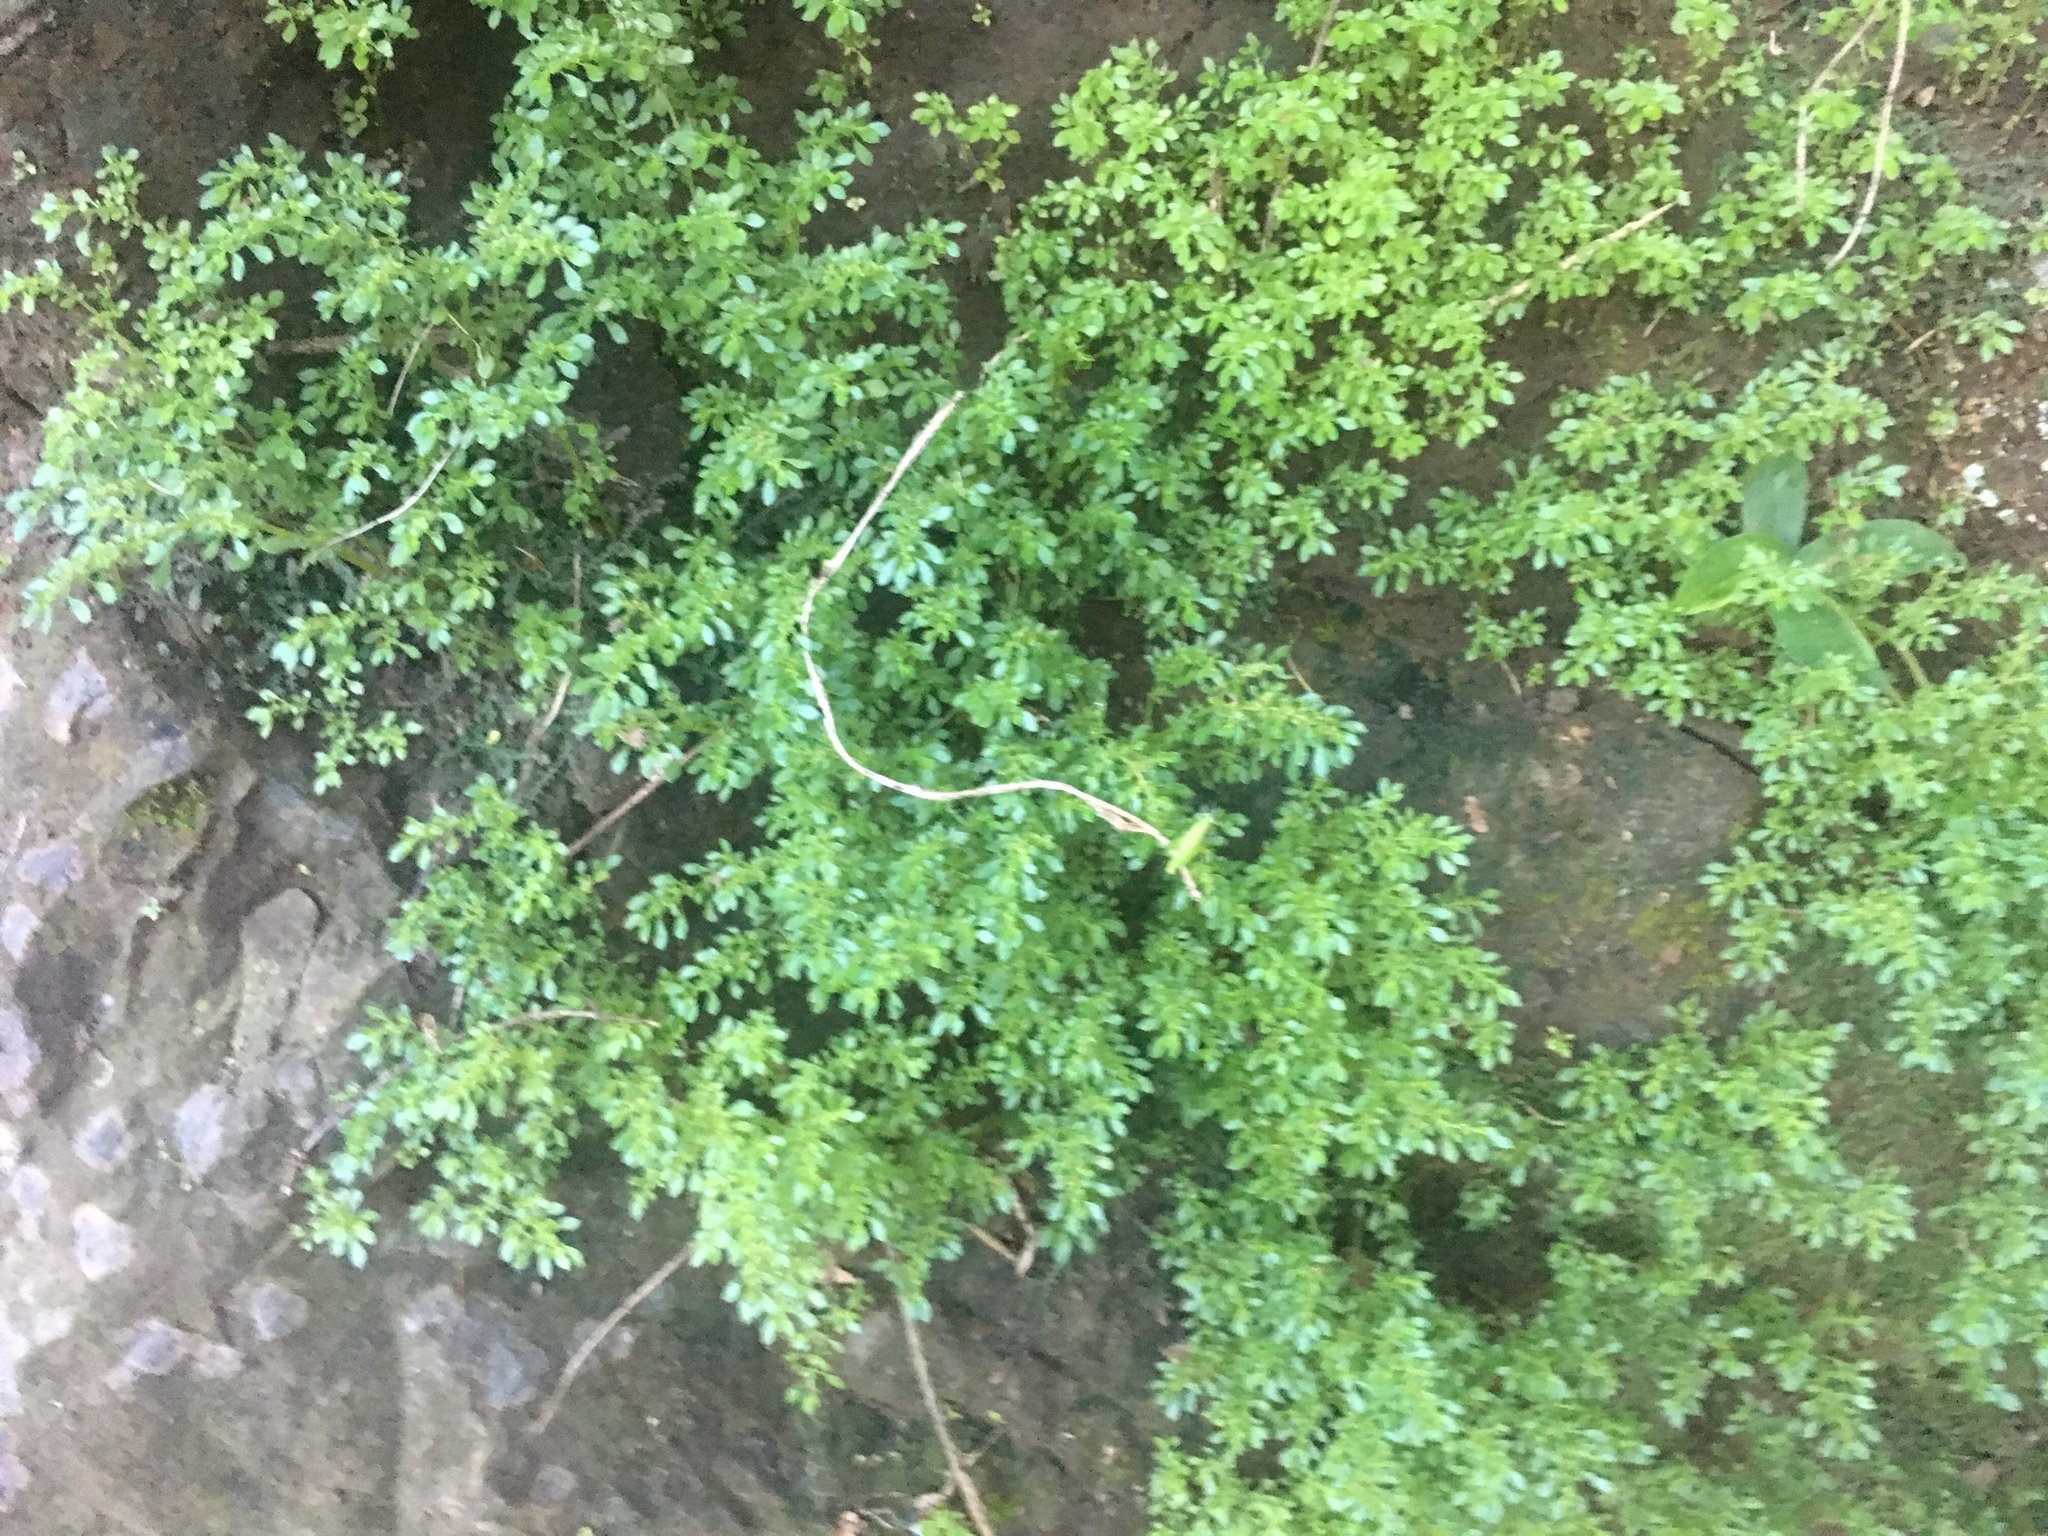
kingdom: Plantae
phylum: Tracheophyta
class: Magnoliopsida
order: Rosales
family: Urticaceae
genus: Pilea
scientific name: Pilea microphylla
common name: Artillery-plant
